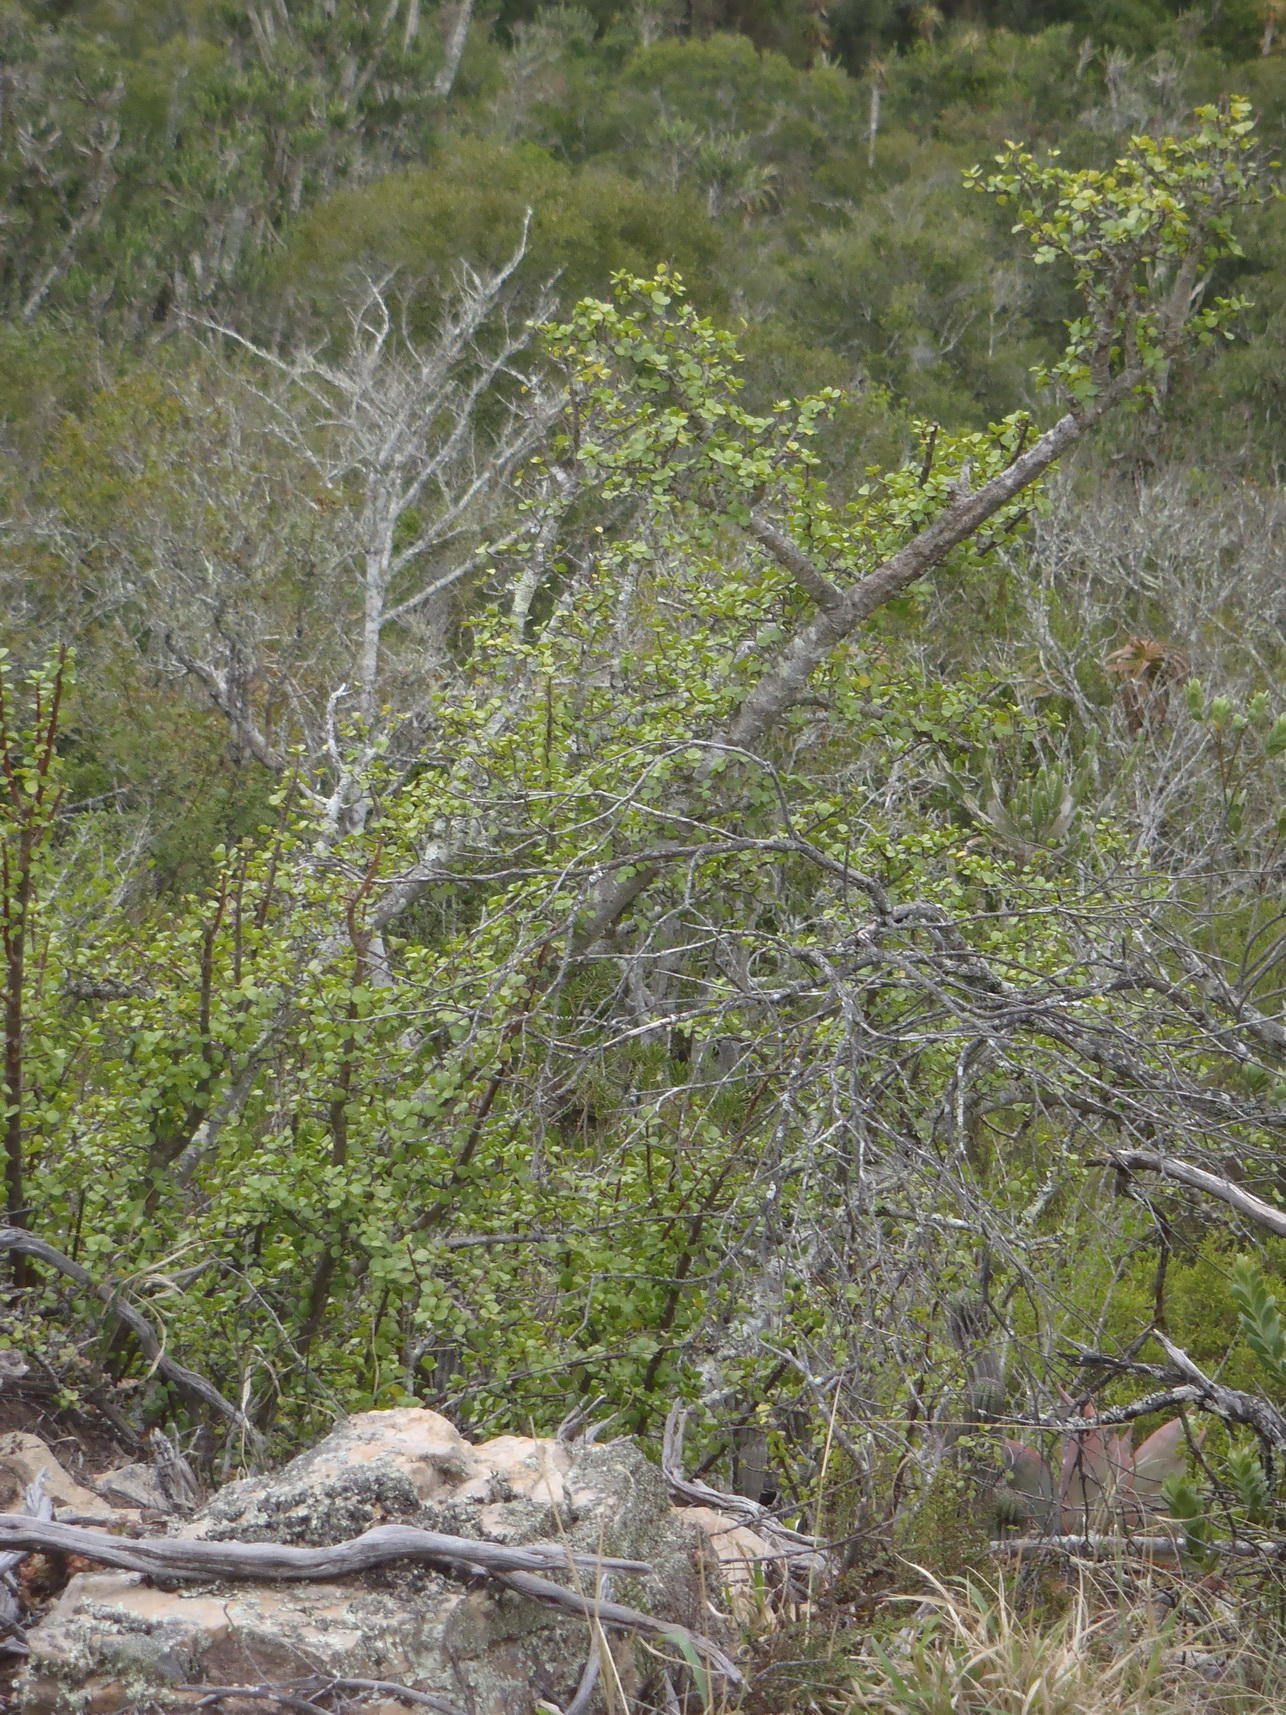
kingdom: Plantae
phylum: Tracheophyta
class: Magnoliopsida
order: Caryophyllales
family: Didiereaceae
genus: Portulacaria
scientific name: Portulacaria afra
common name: Elephant-bush
